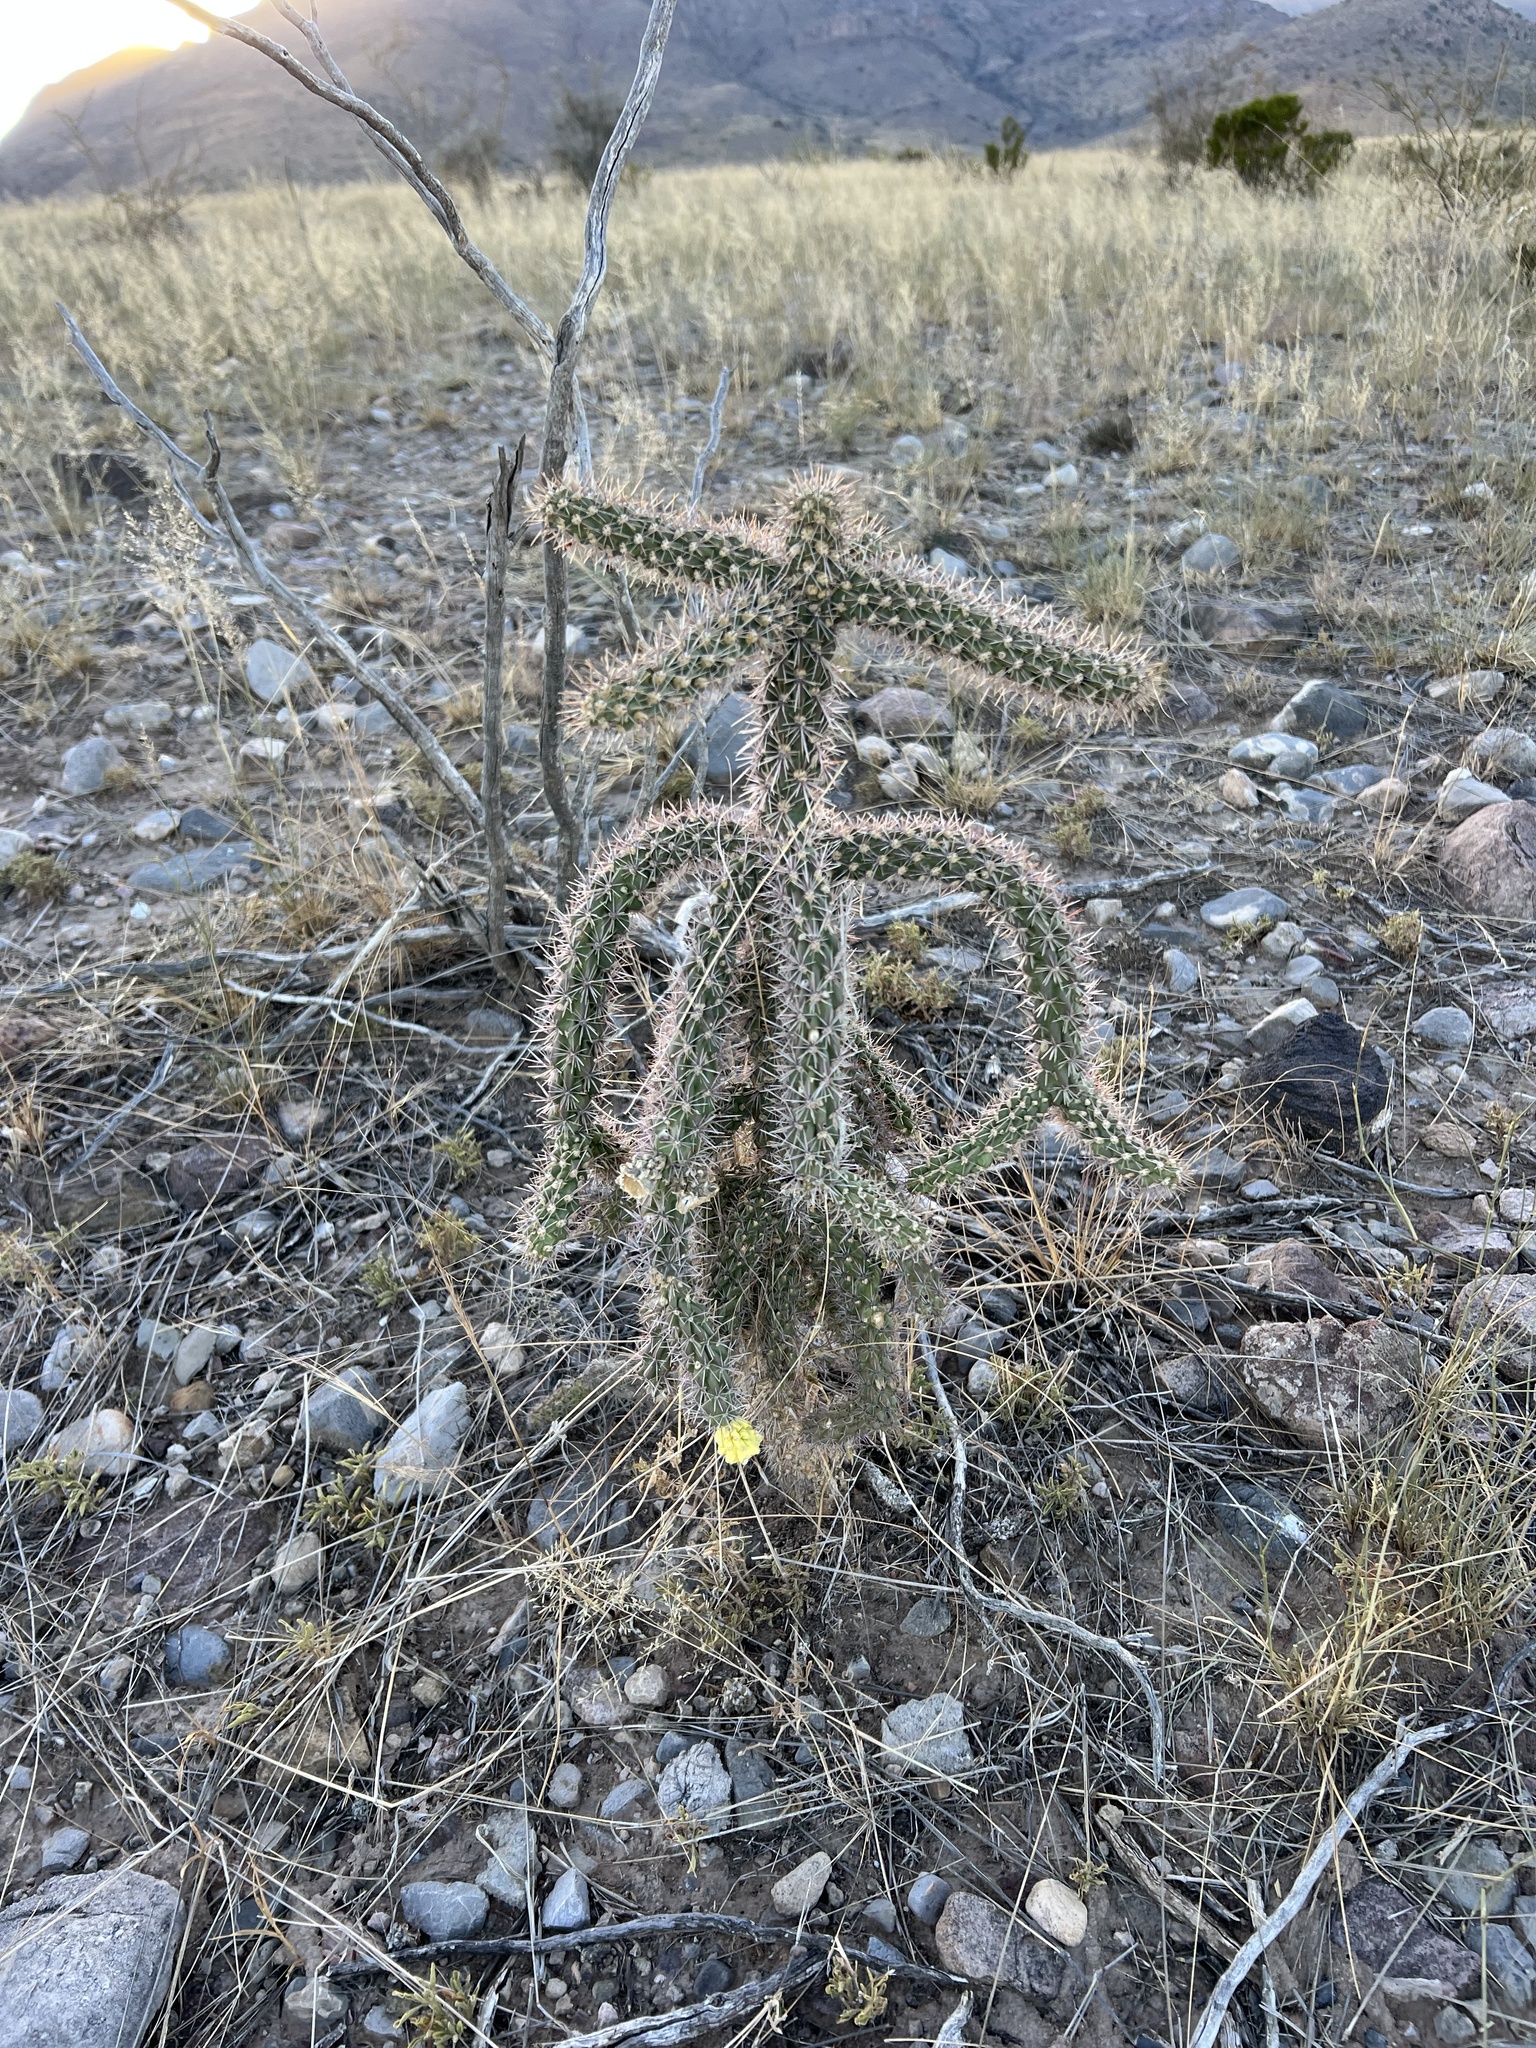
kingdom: Plantae
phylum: Tracheophyta
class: Magnoliopsida
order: Caryophyllales
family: Cactaceae
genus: Cylindropuntia
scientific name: Cylindropuntia imbricata
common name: Candelabrum cactus
